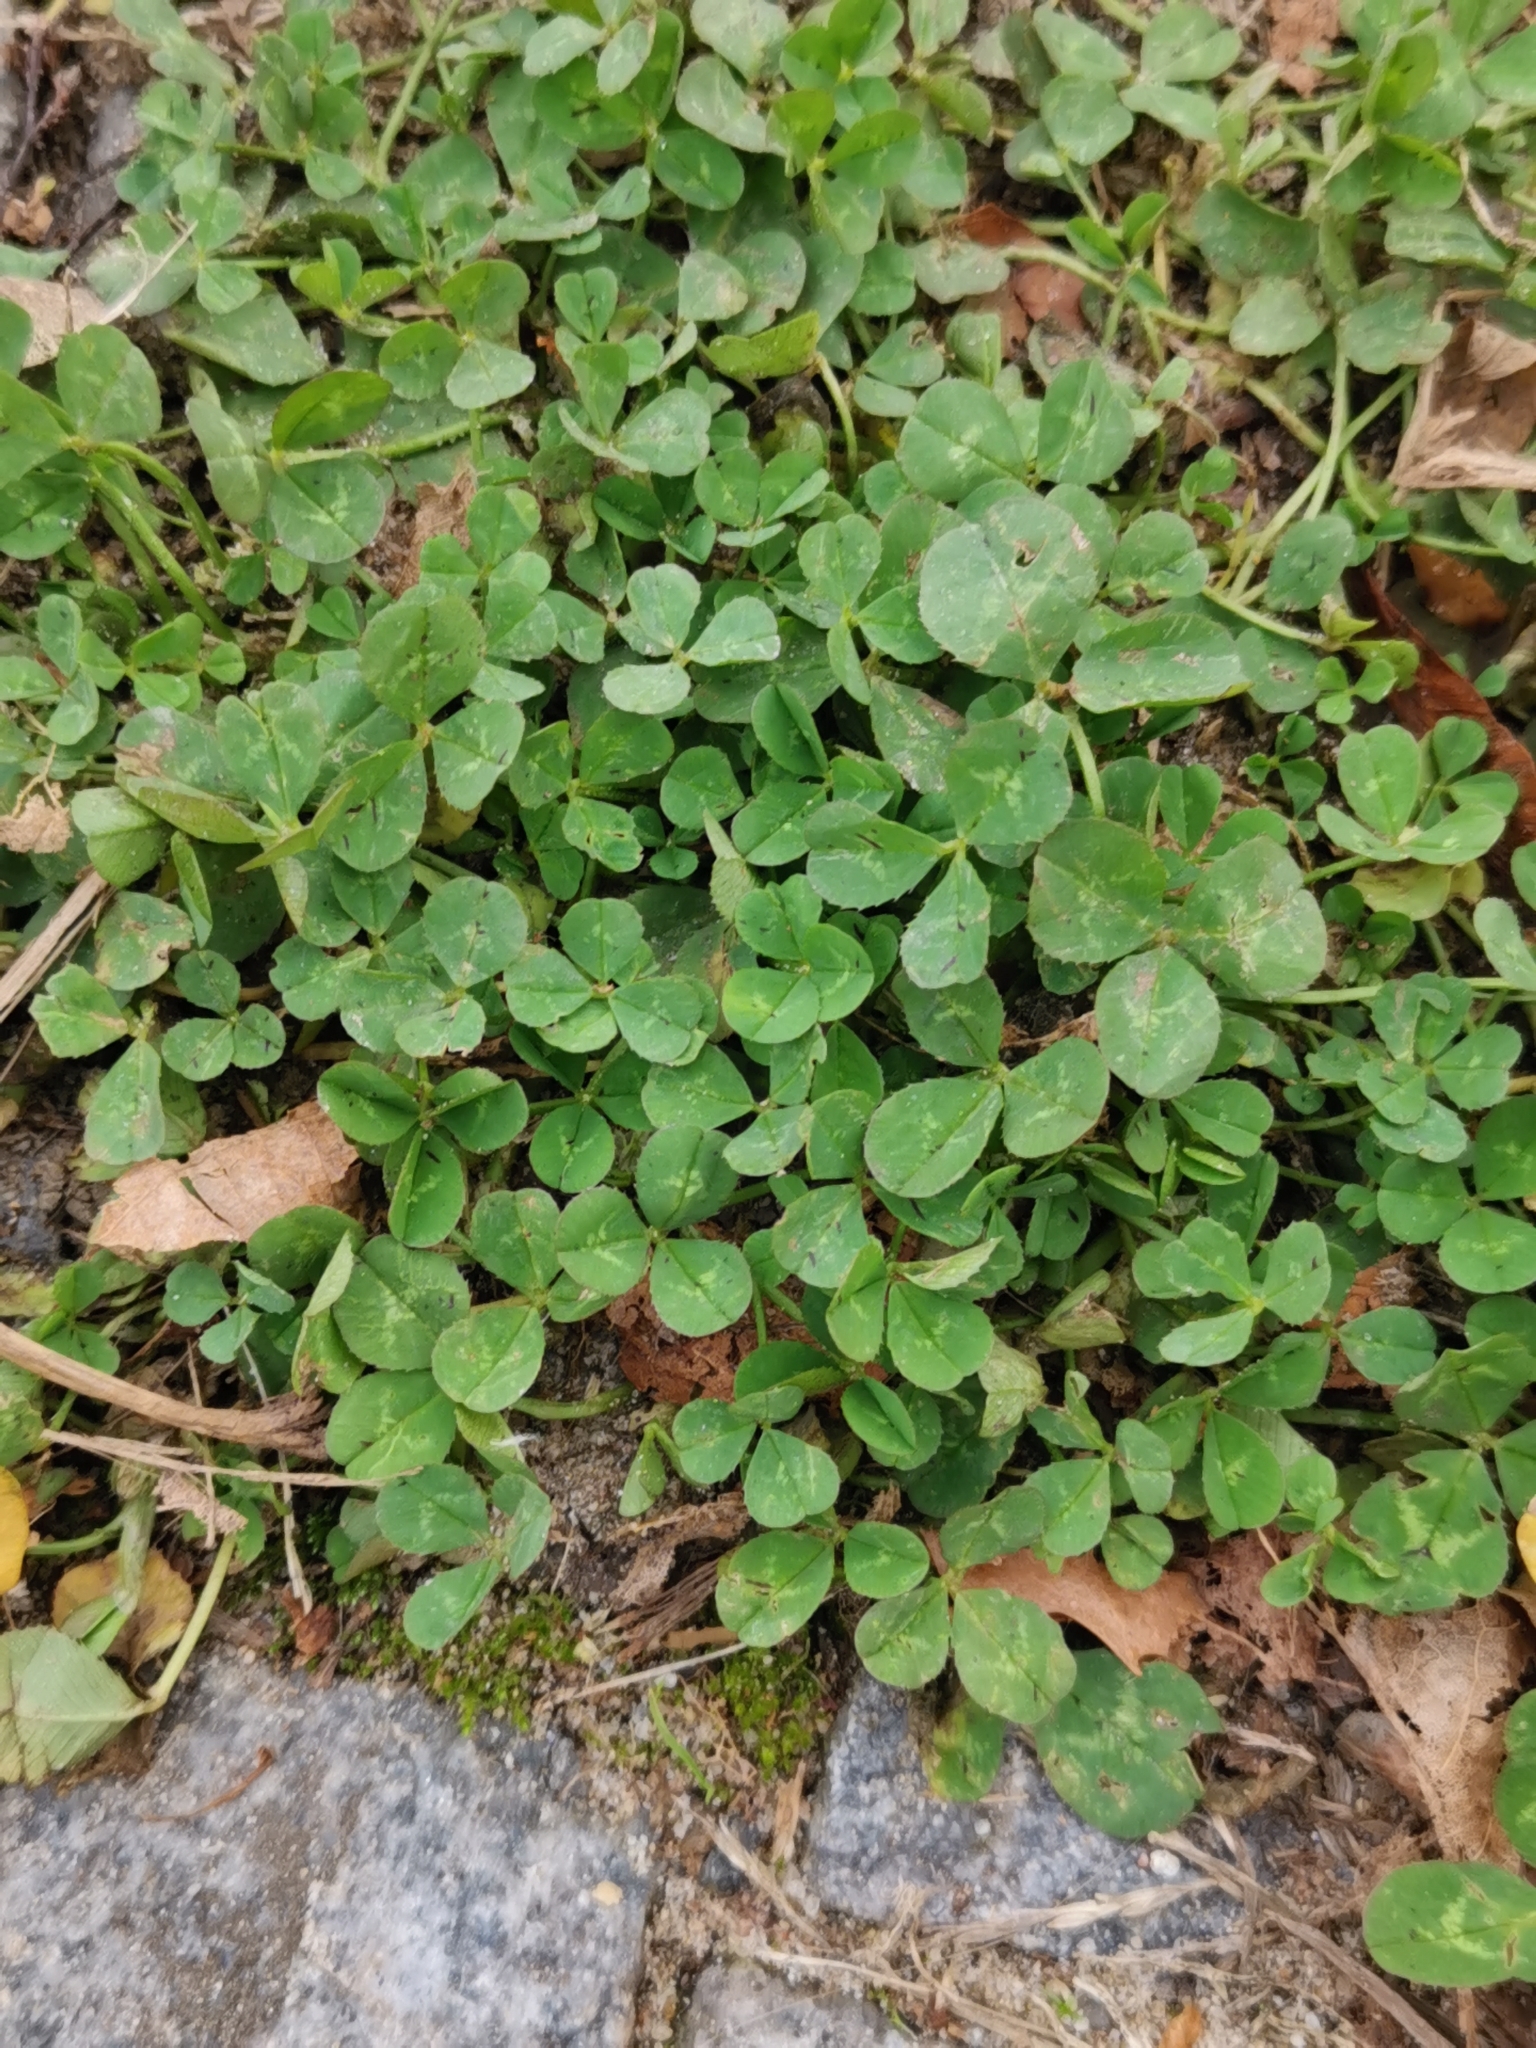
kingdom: Plantae
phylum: Tracheophyta
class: Magnoliopsida
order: Fabales
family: Fabaceae
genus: Trifolium
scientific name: Trifolium repens
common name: White clover
